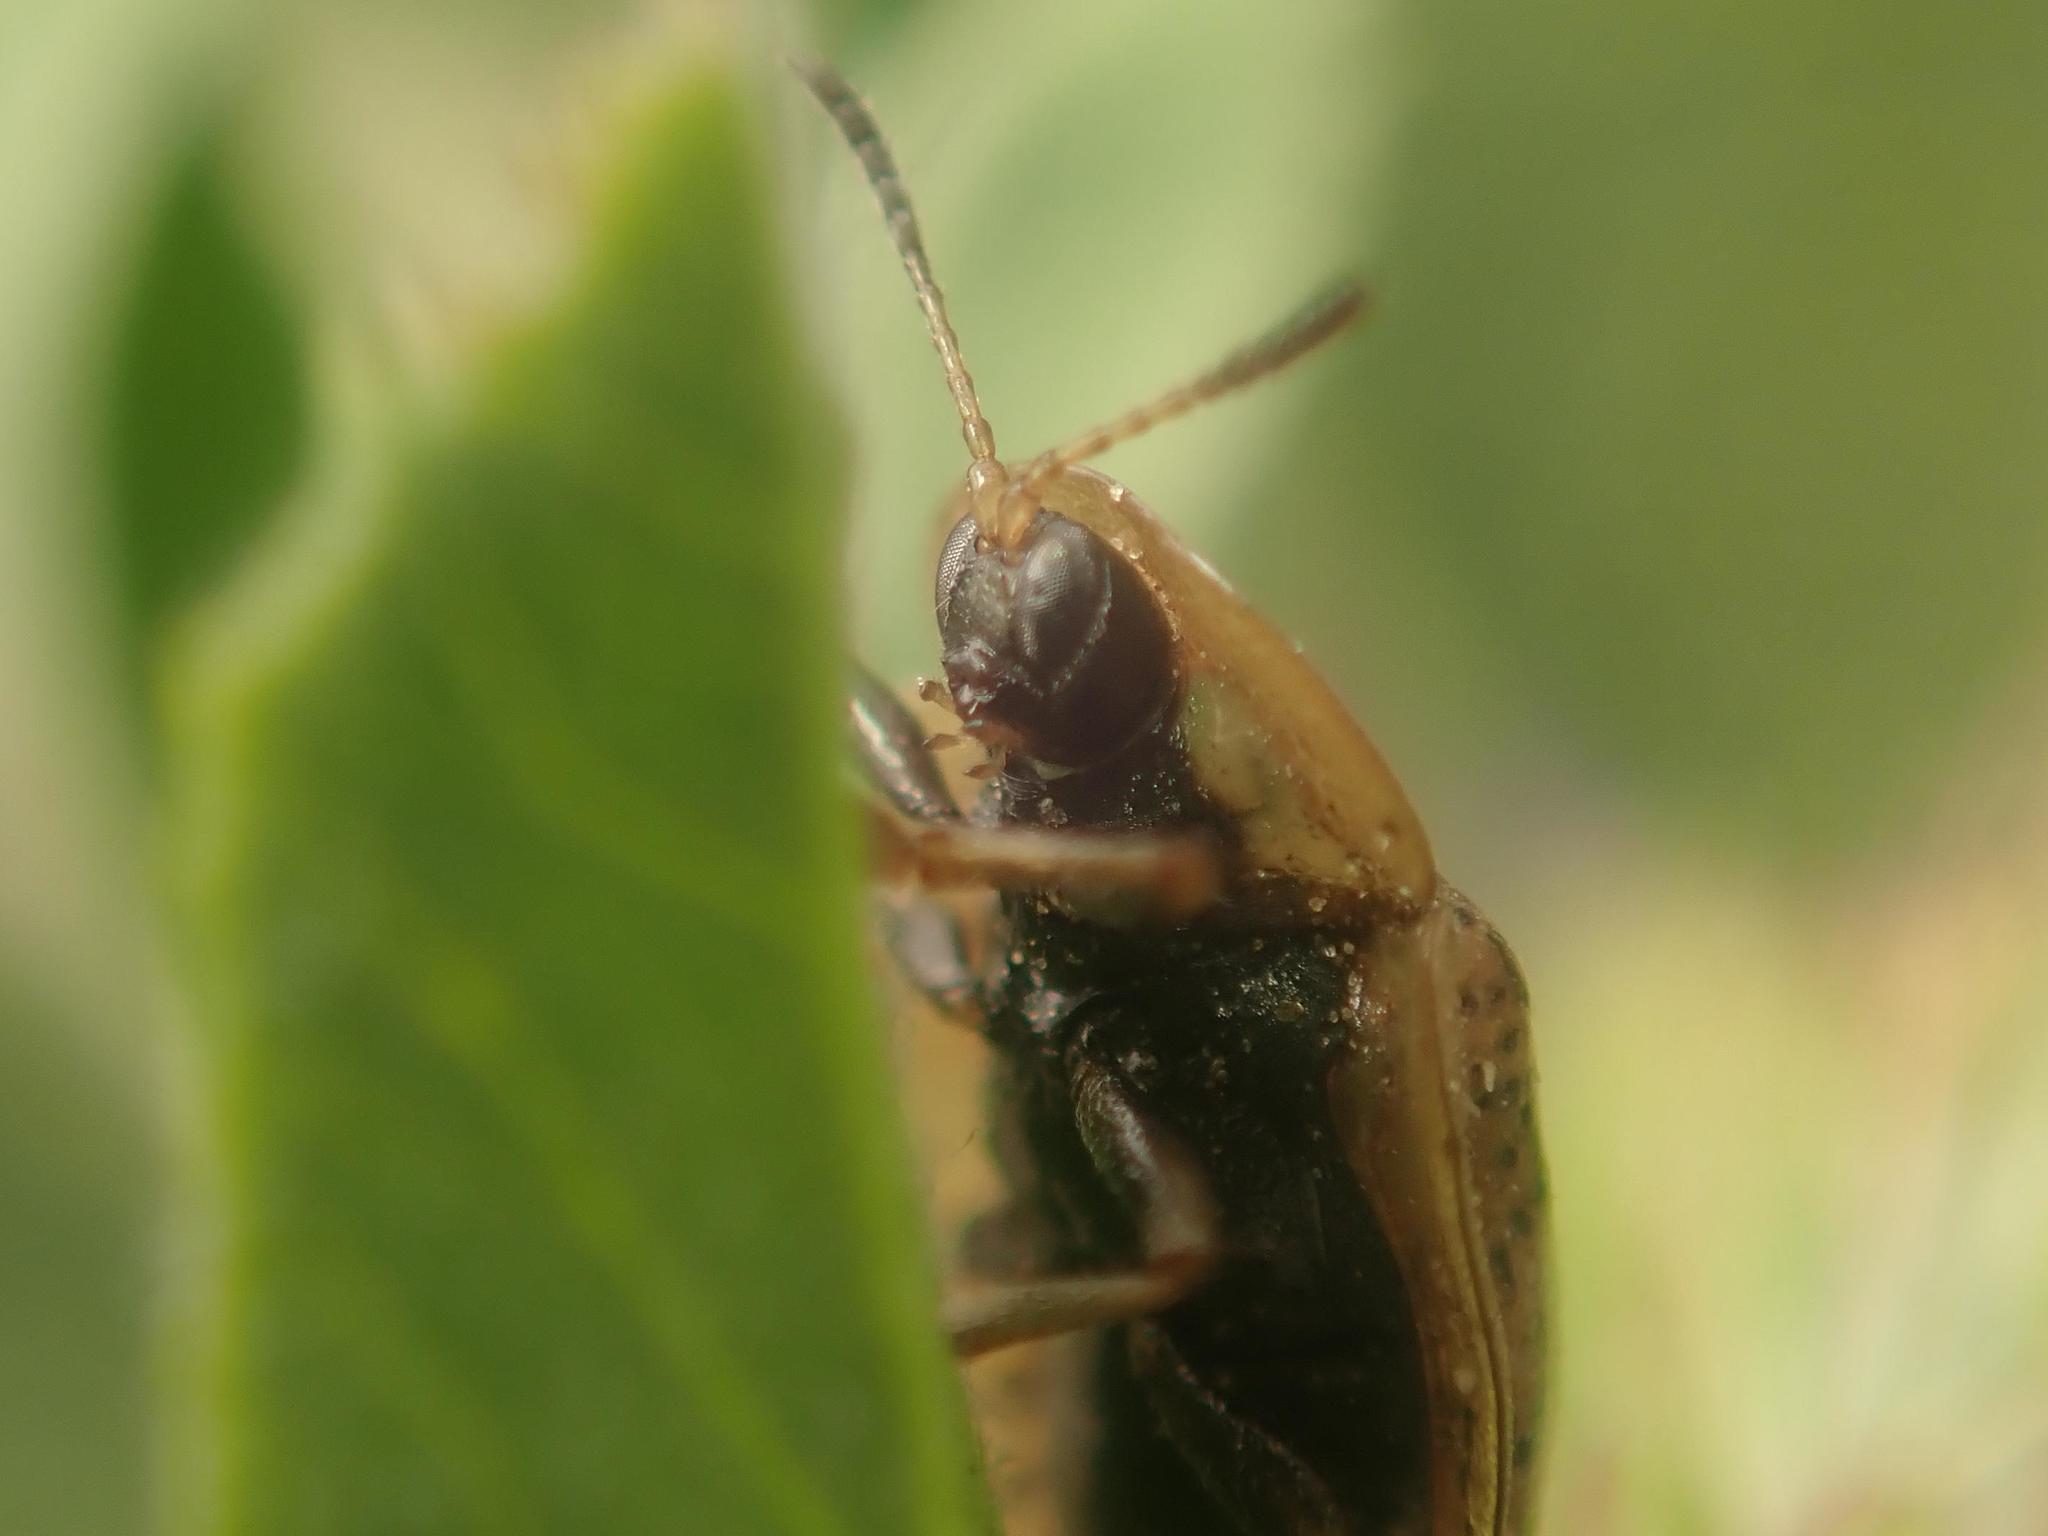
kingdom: Animalia
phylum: Arthropoda
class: Insecta
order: Coleoptera
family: Chrysomelidae
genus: Cassida
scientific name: Cassida nebulosa
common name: Beet tortoise beetle
